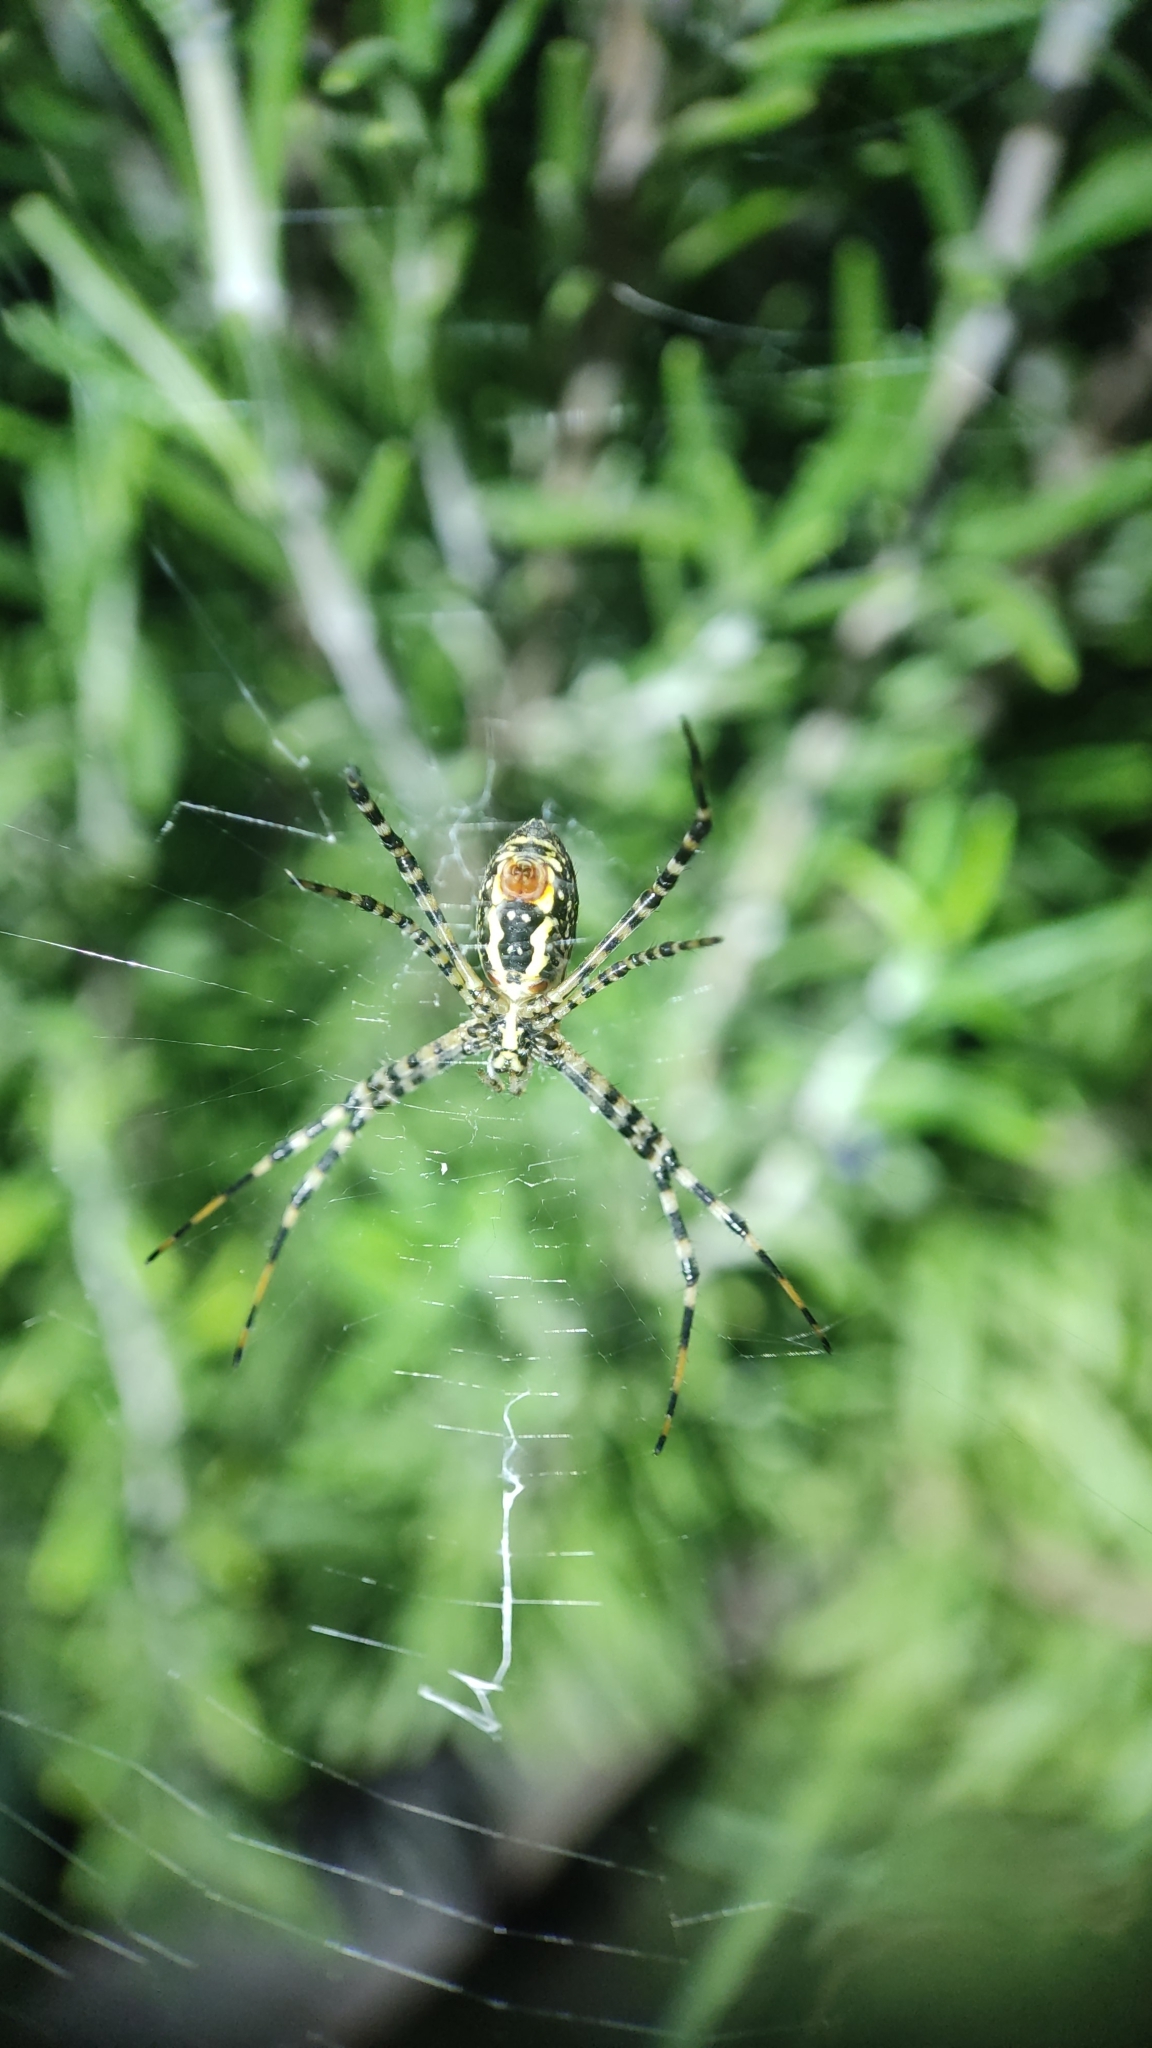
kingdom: Animalia
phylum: Arthropoda
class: Arachnida
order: Araneae
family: Araneidae
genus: Argiope
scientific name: Argiope trifasciata
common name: Banded garden spider
